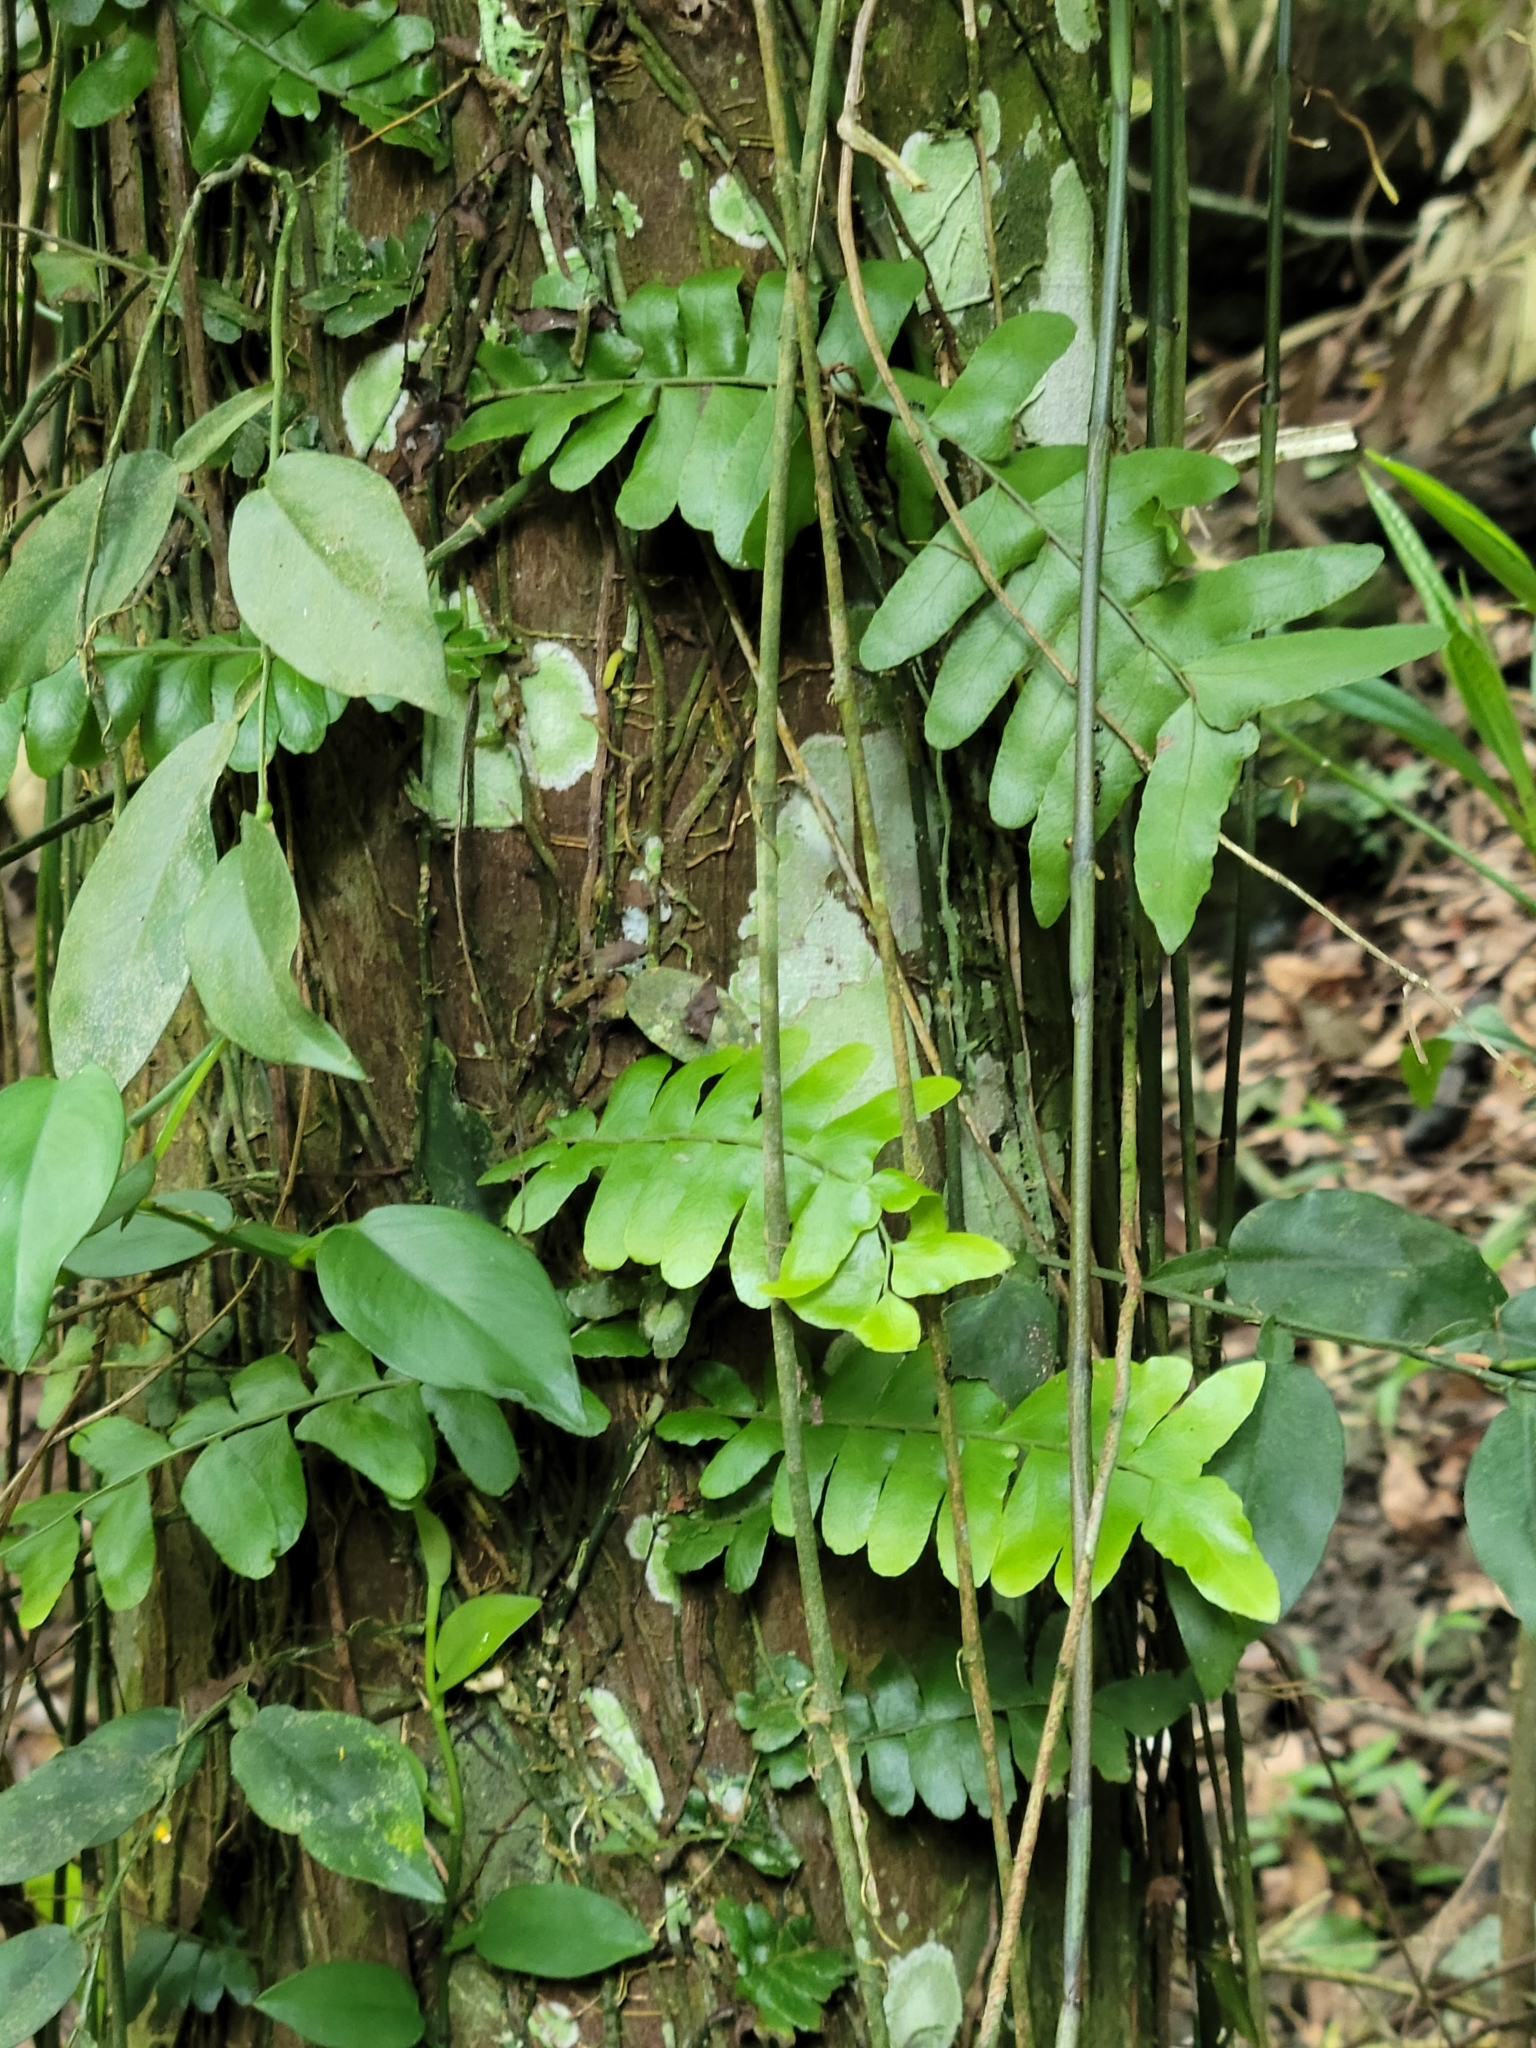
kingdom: Plantae
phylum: Tracheophyta
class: Polypodiopsida
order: Polypodiales
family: Tectariaceae
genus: Arthropteris
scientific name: Arthropteris palisotii
